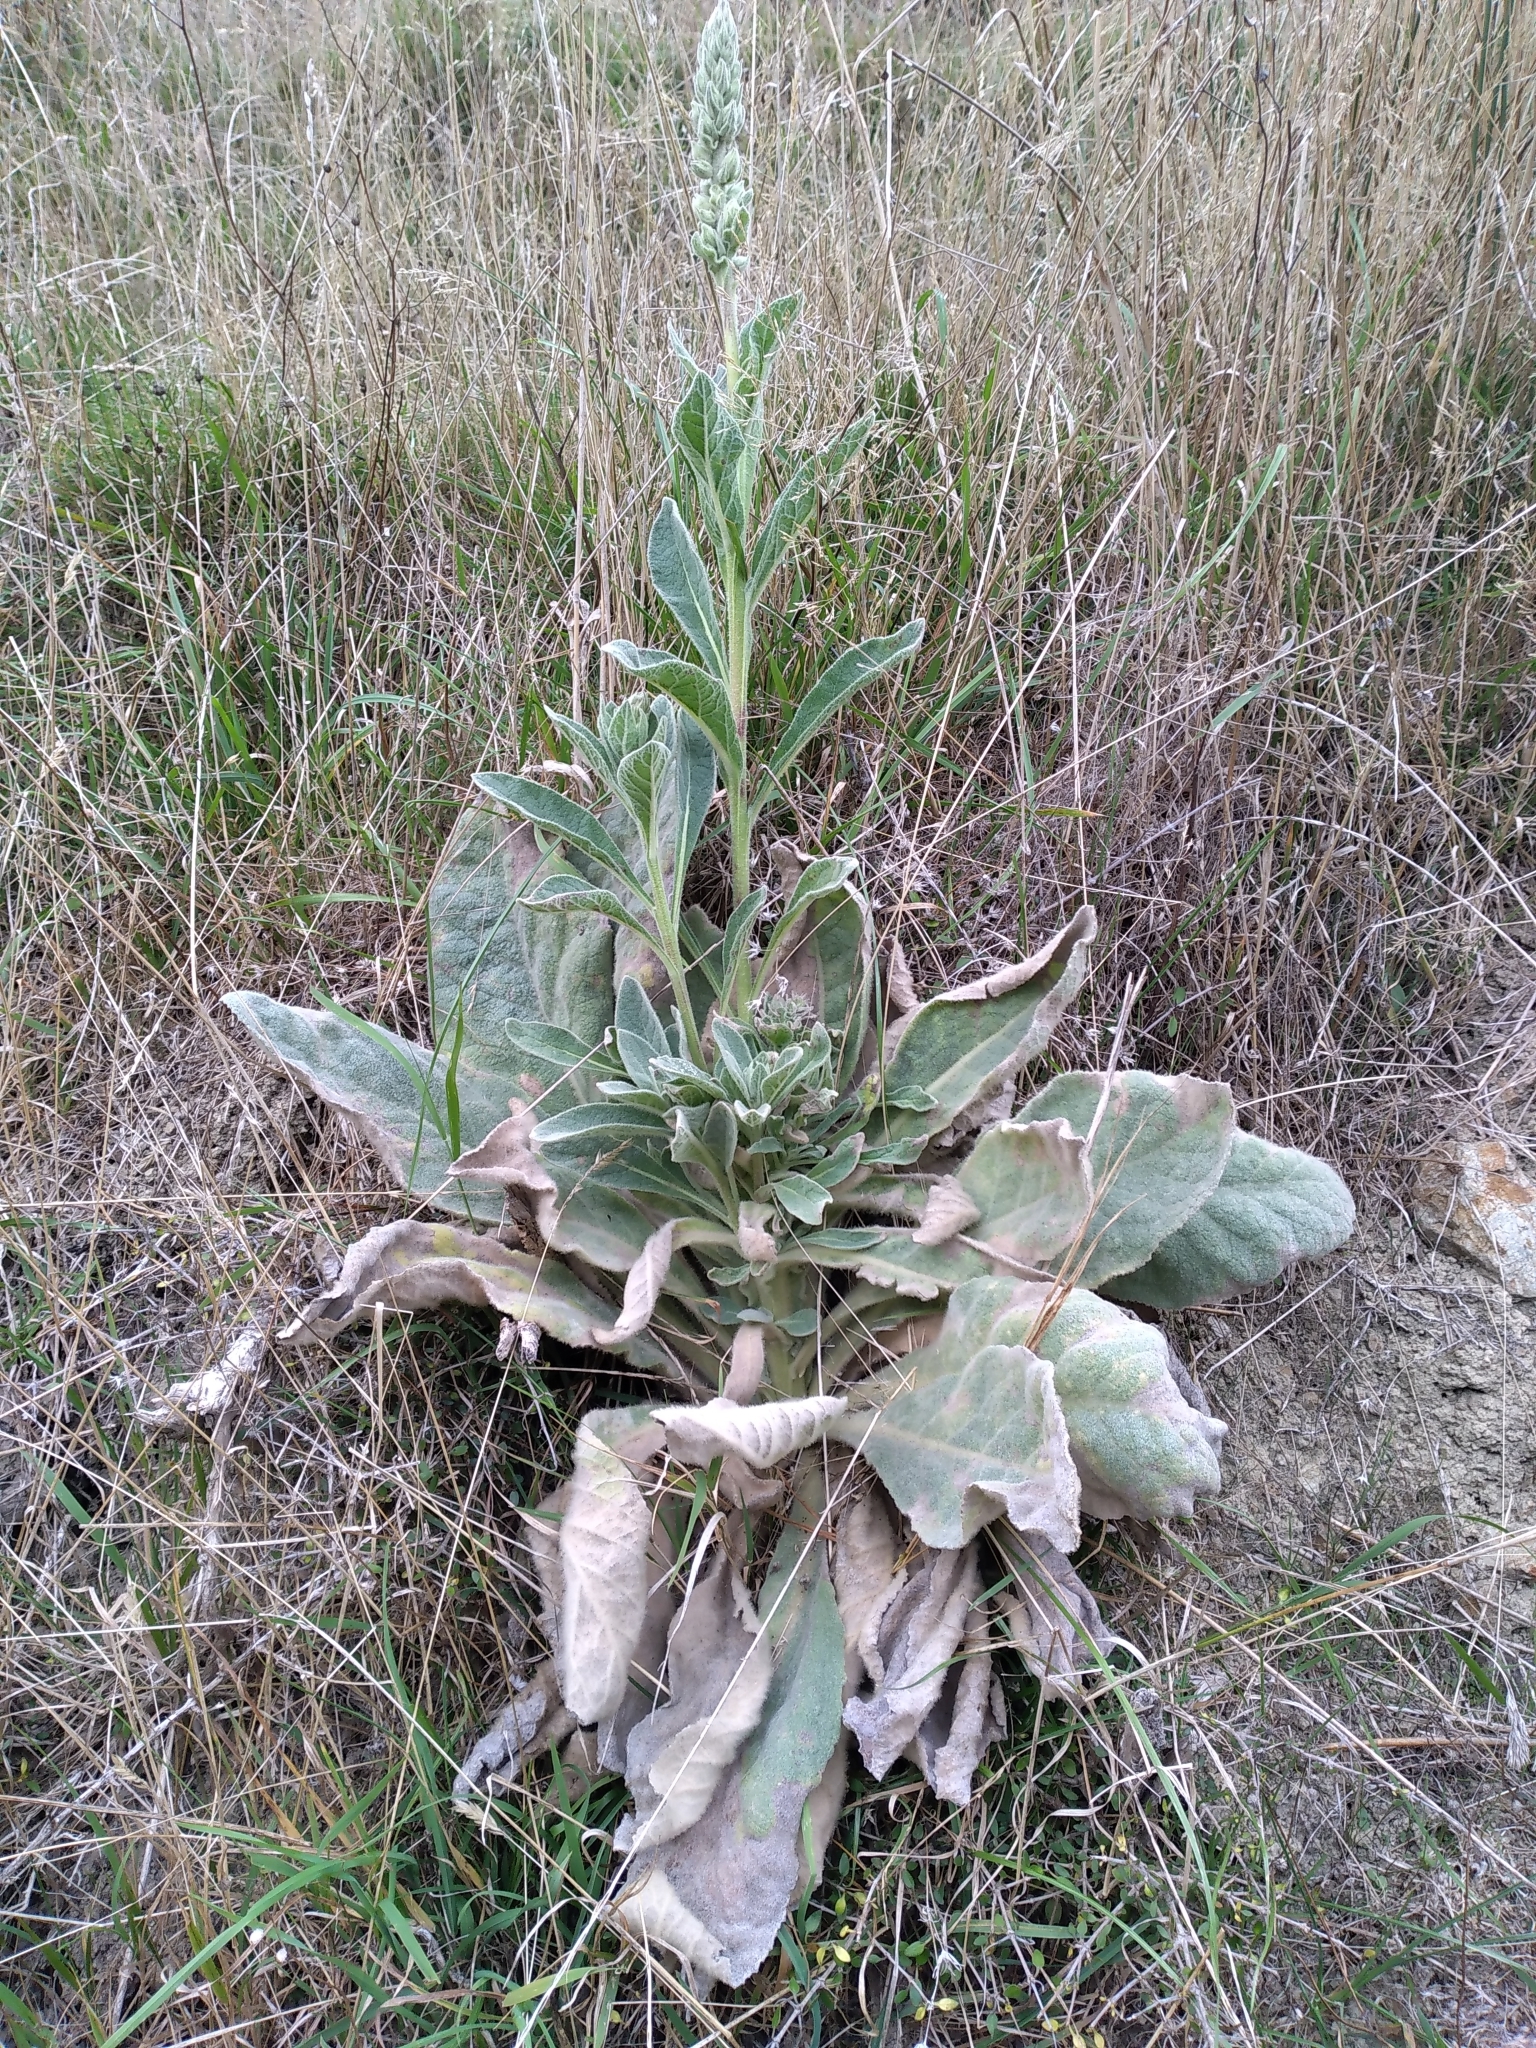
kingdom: Plantae
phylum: Tracheophyta
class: Magnoliopsida
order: Lamiales
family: Scrophulariaceae
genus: Verbascum
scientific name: Verbascum thapsus
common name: Common mullein
